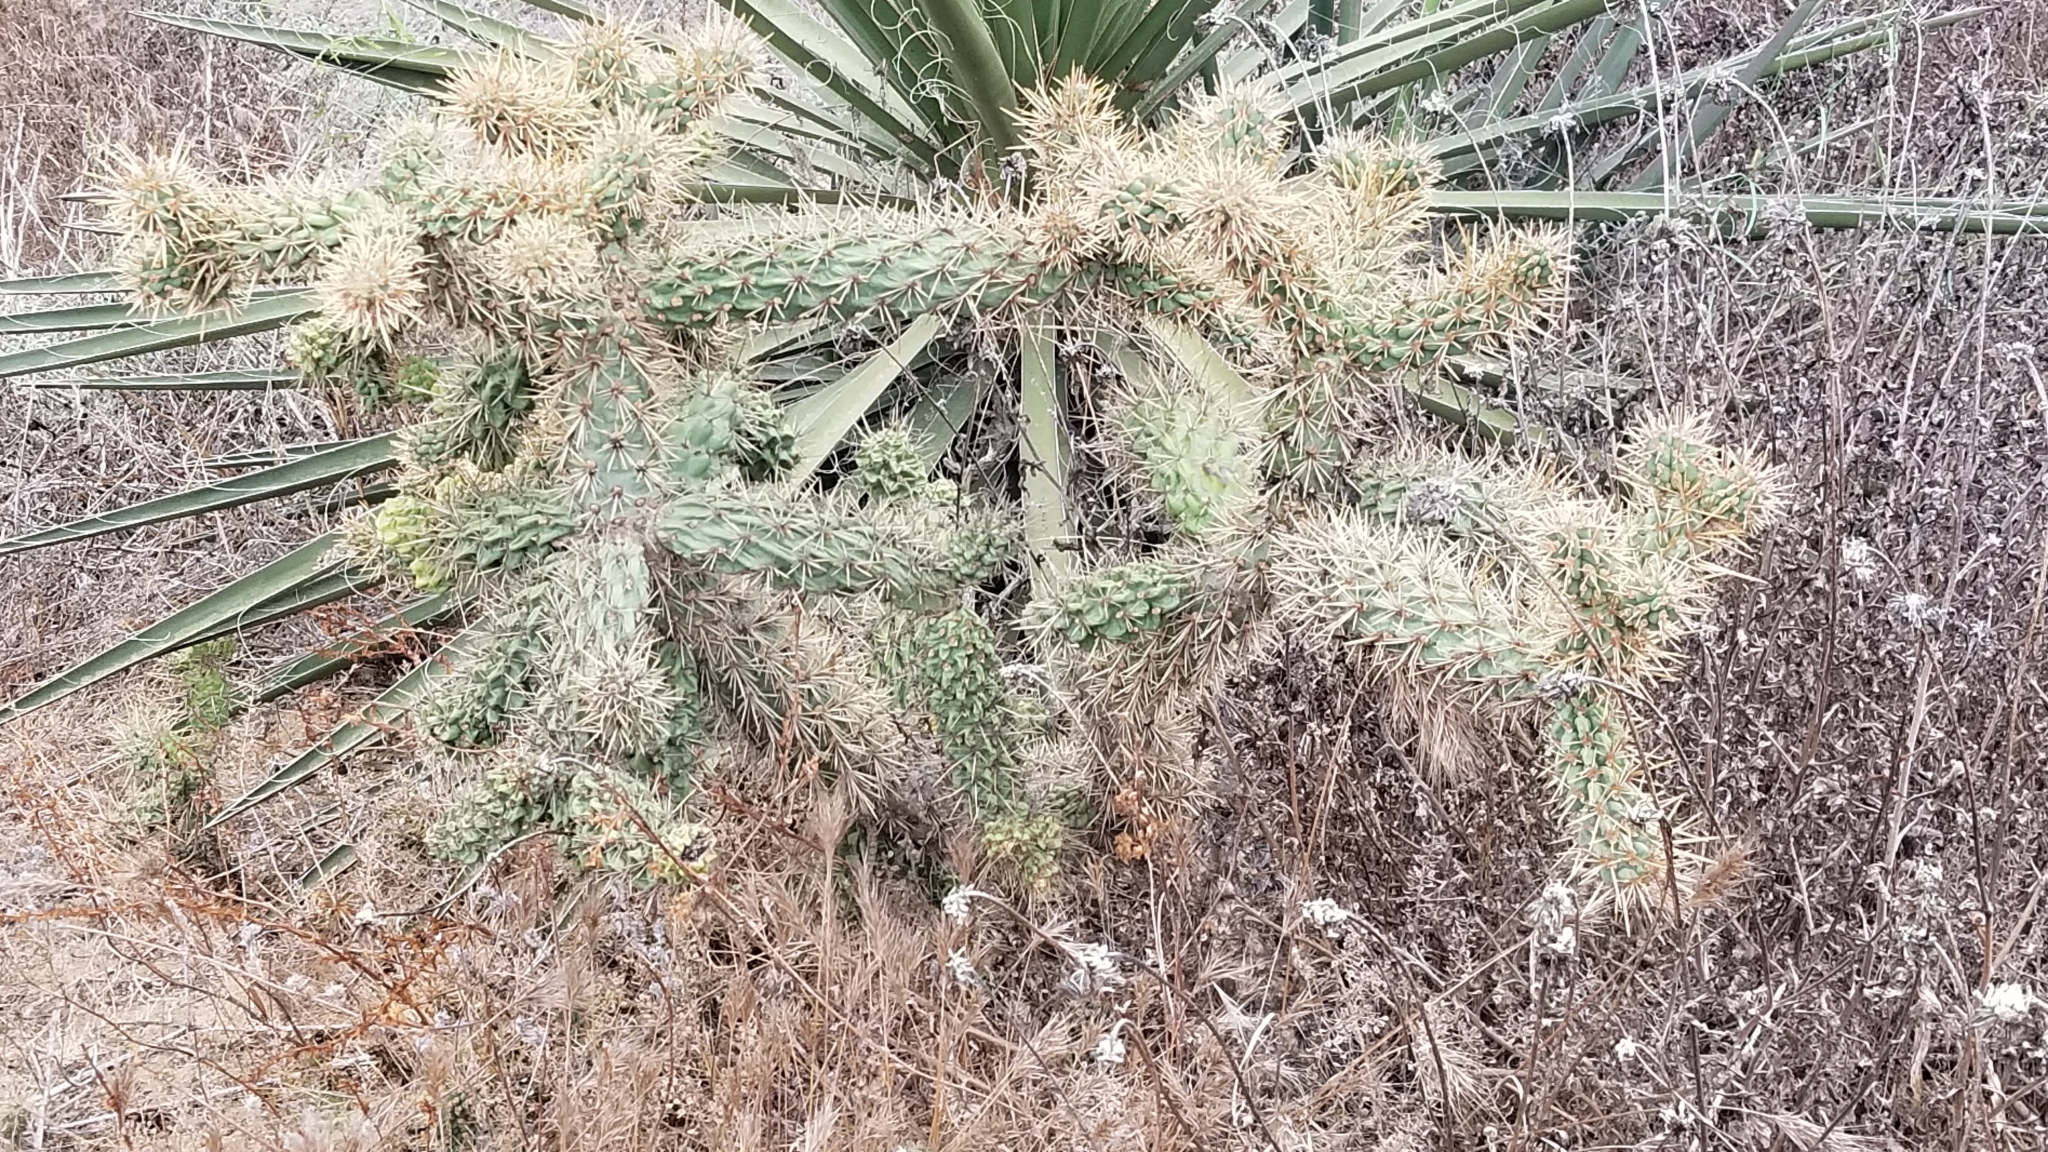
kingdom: Plantae
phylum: Tracheophyta
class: Magnoliopsida
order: Caryophyllales
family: Cactaceae
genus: Cylindropuntia
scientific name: Cylindropuntia prolifera
